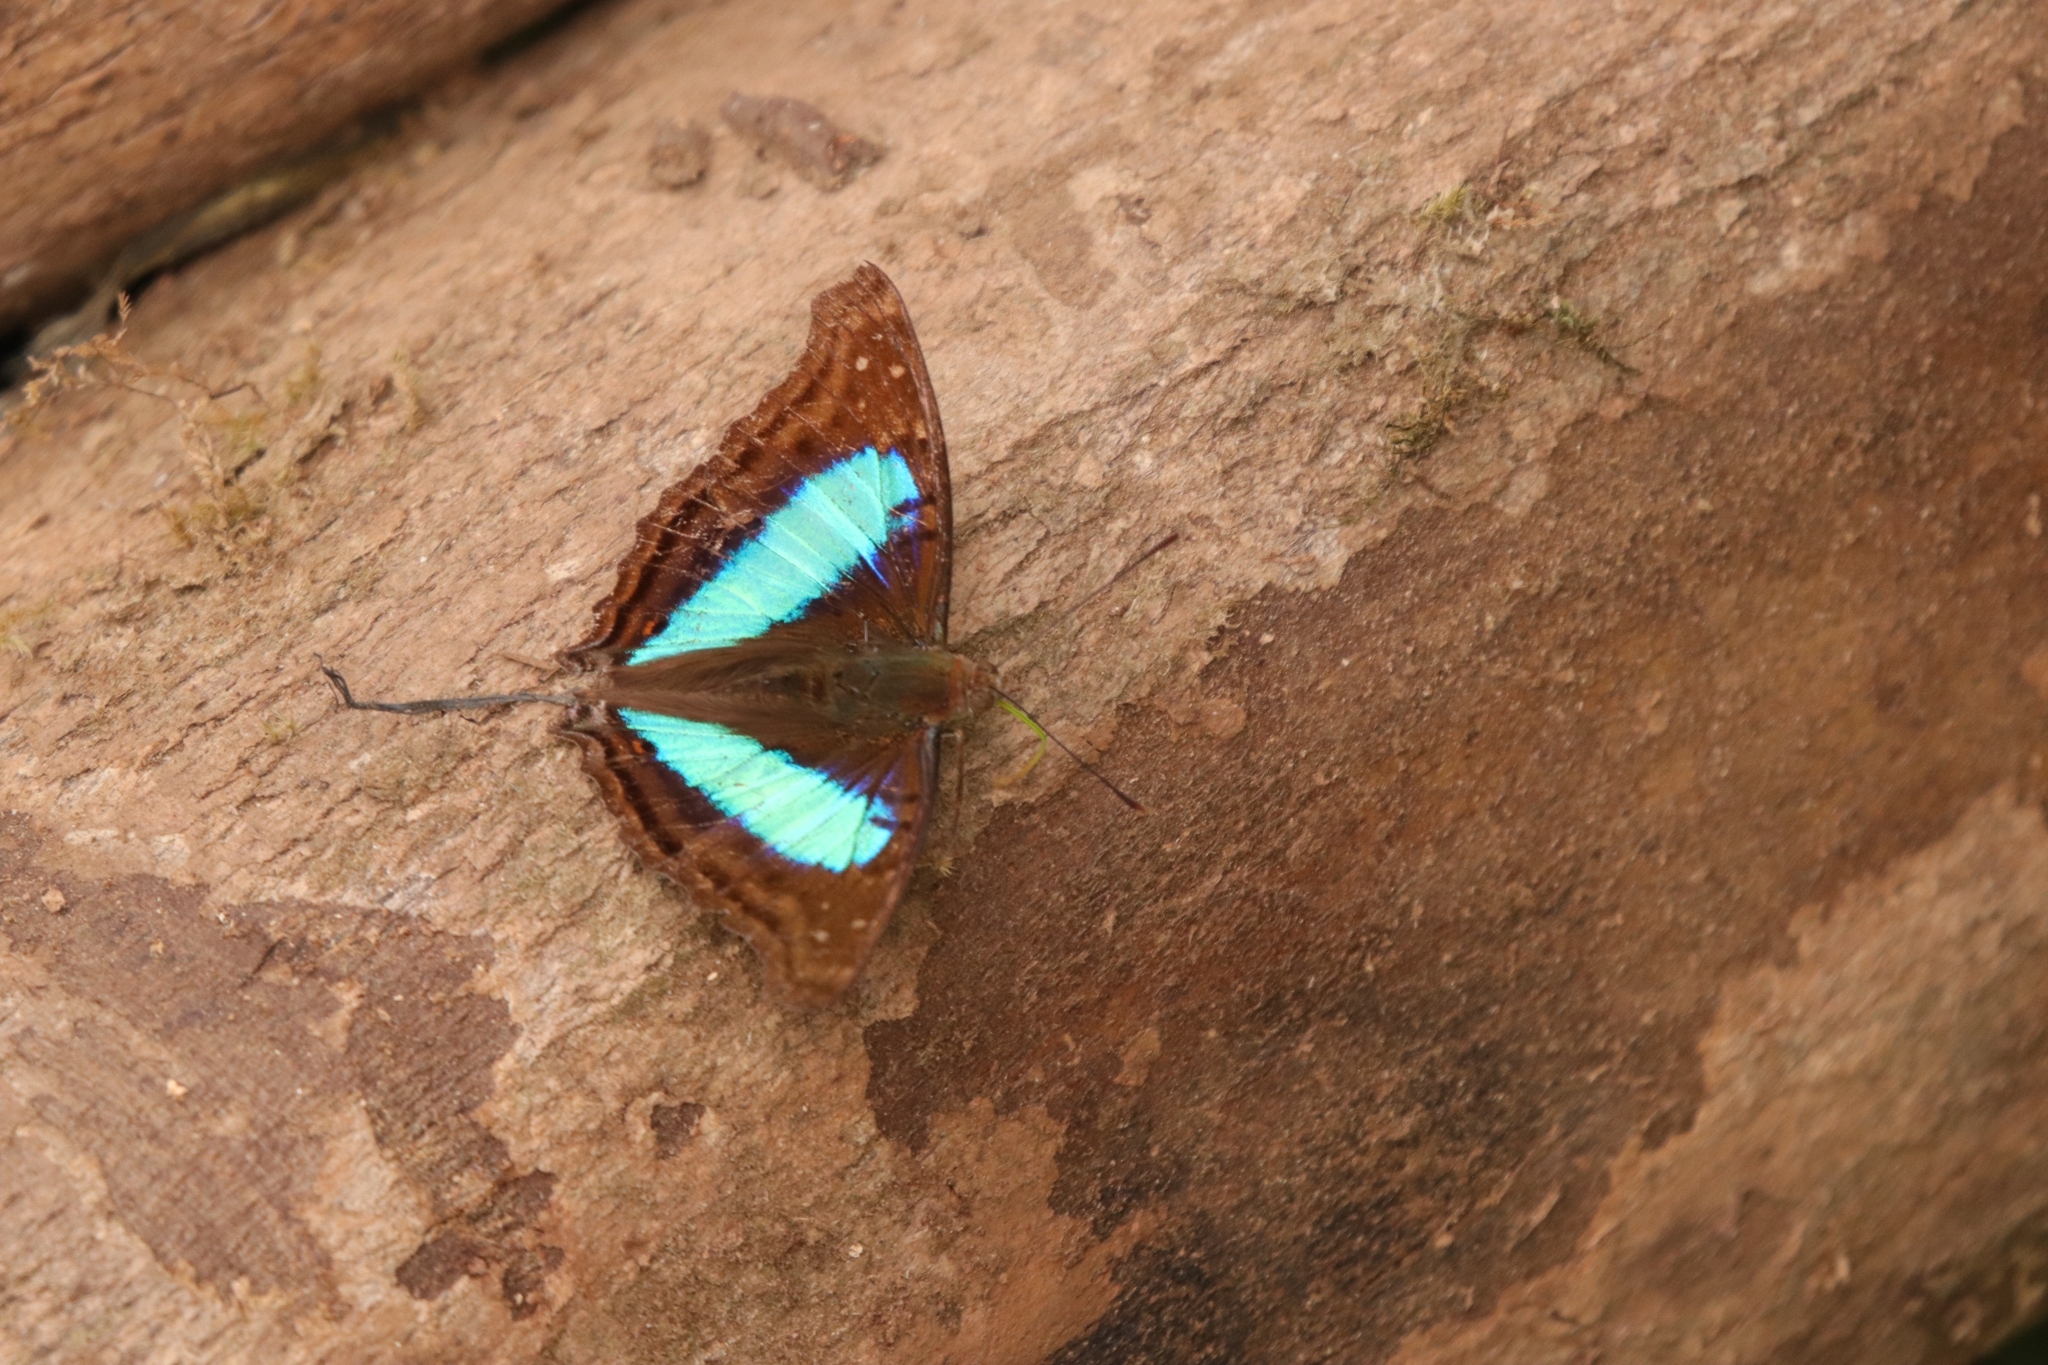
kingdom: Animalia
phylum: Arthropoda
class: Insecta
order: Lepidoptera
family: Nymphalidae
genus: Doxocopa
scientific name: Doxocopa laurentia
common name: Turquoise emperor
